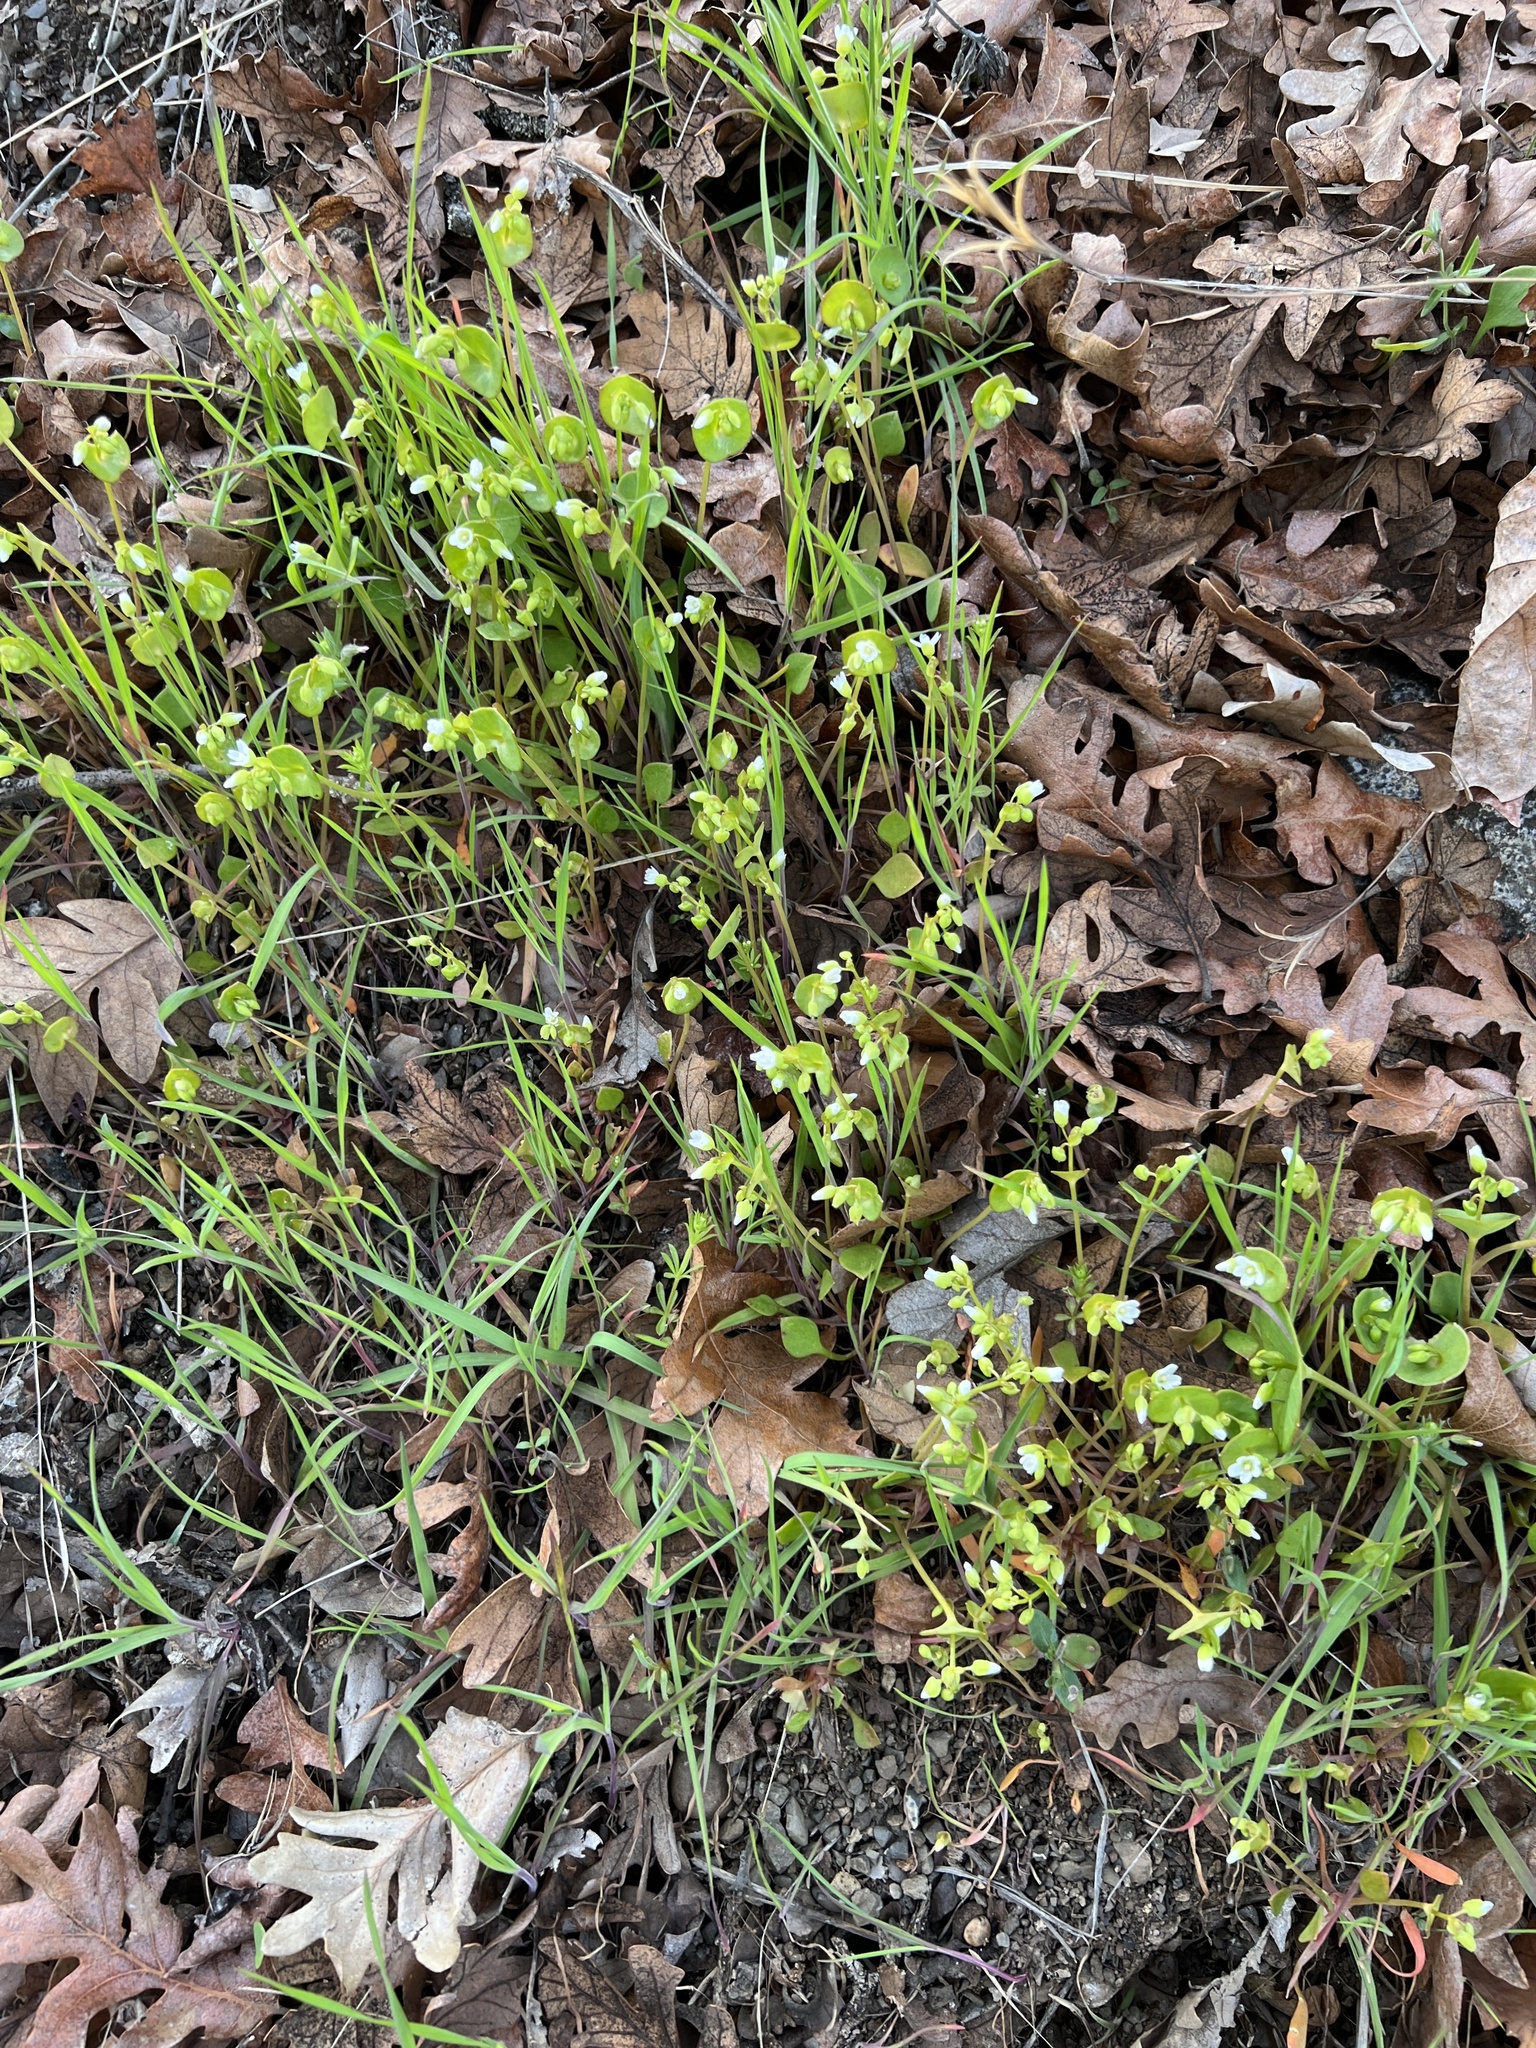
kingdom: Plantae
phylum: Tracheophyta
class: Magnoliopsida
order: Caryophyllales
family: Montiaceae
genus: Claytonia
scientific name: Claytonia perfoliata
